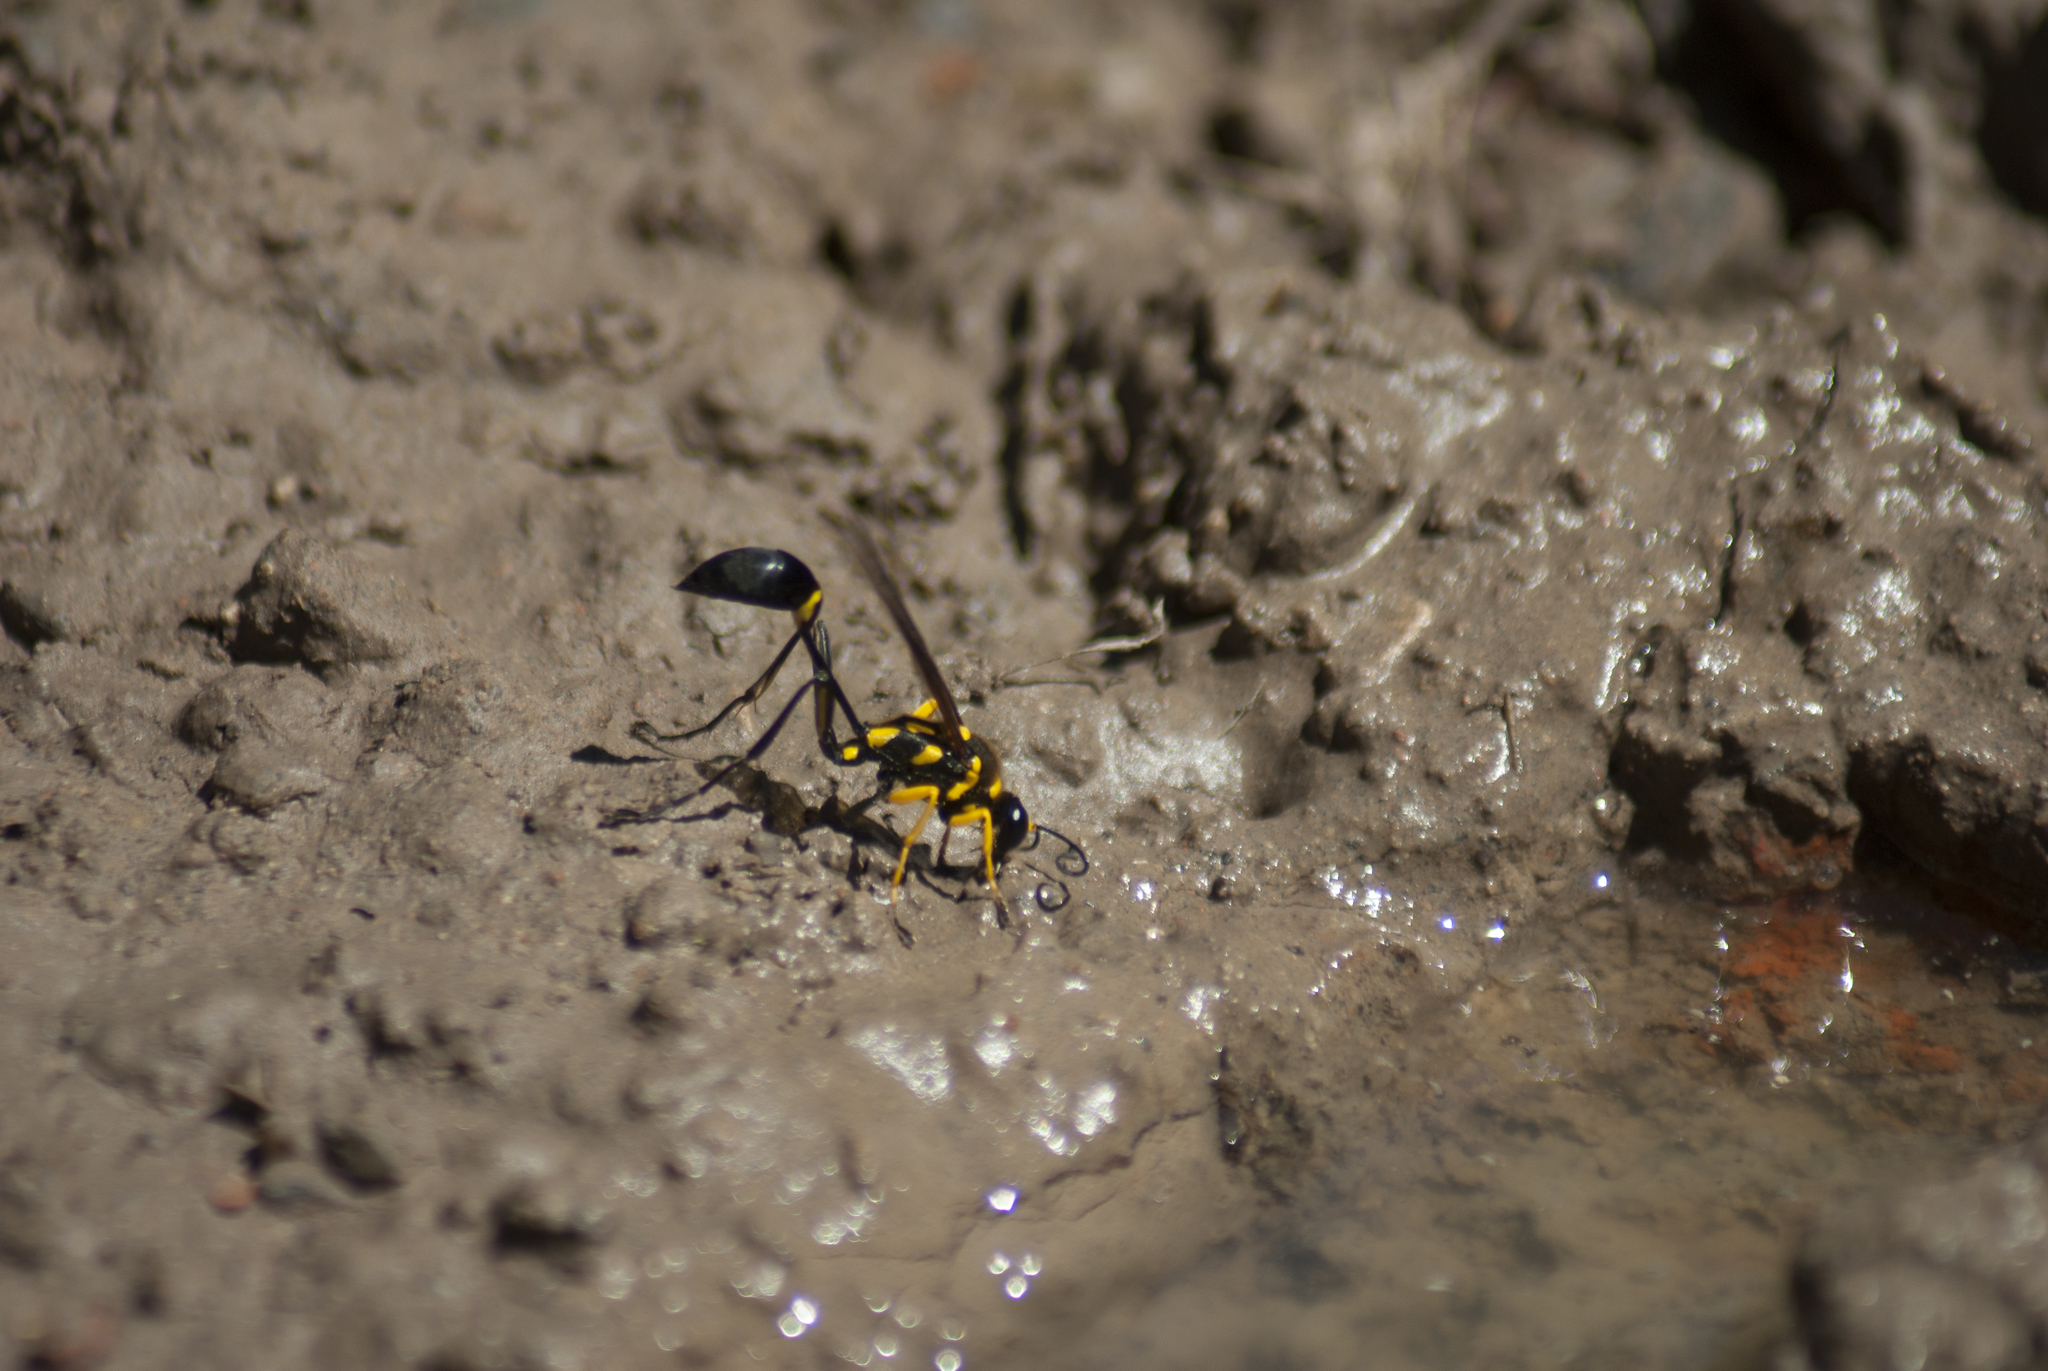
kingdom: Animalia
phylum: Arthropoda
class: Insecta
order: Hymenoptera
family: Sphecidae
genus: Sceliphron
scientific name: Sceliphron fistularium
